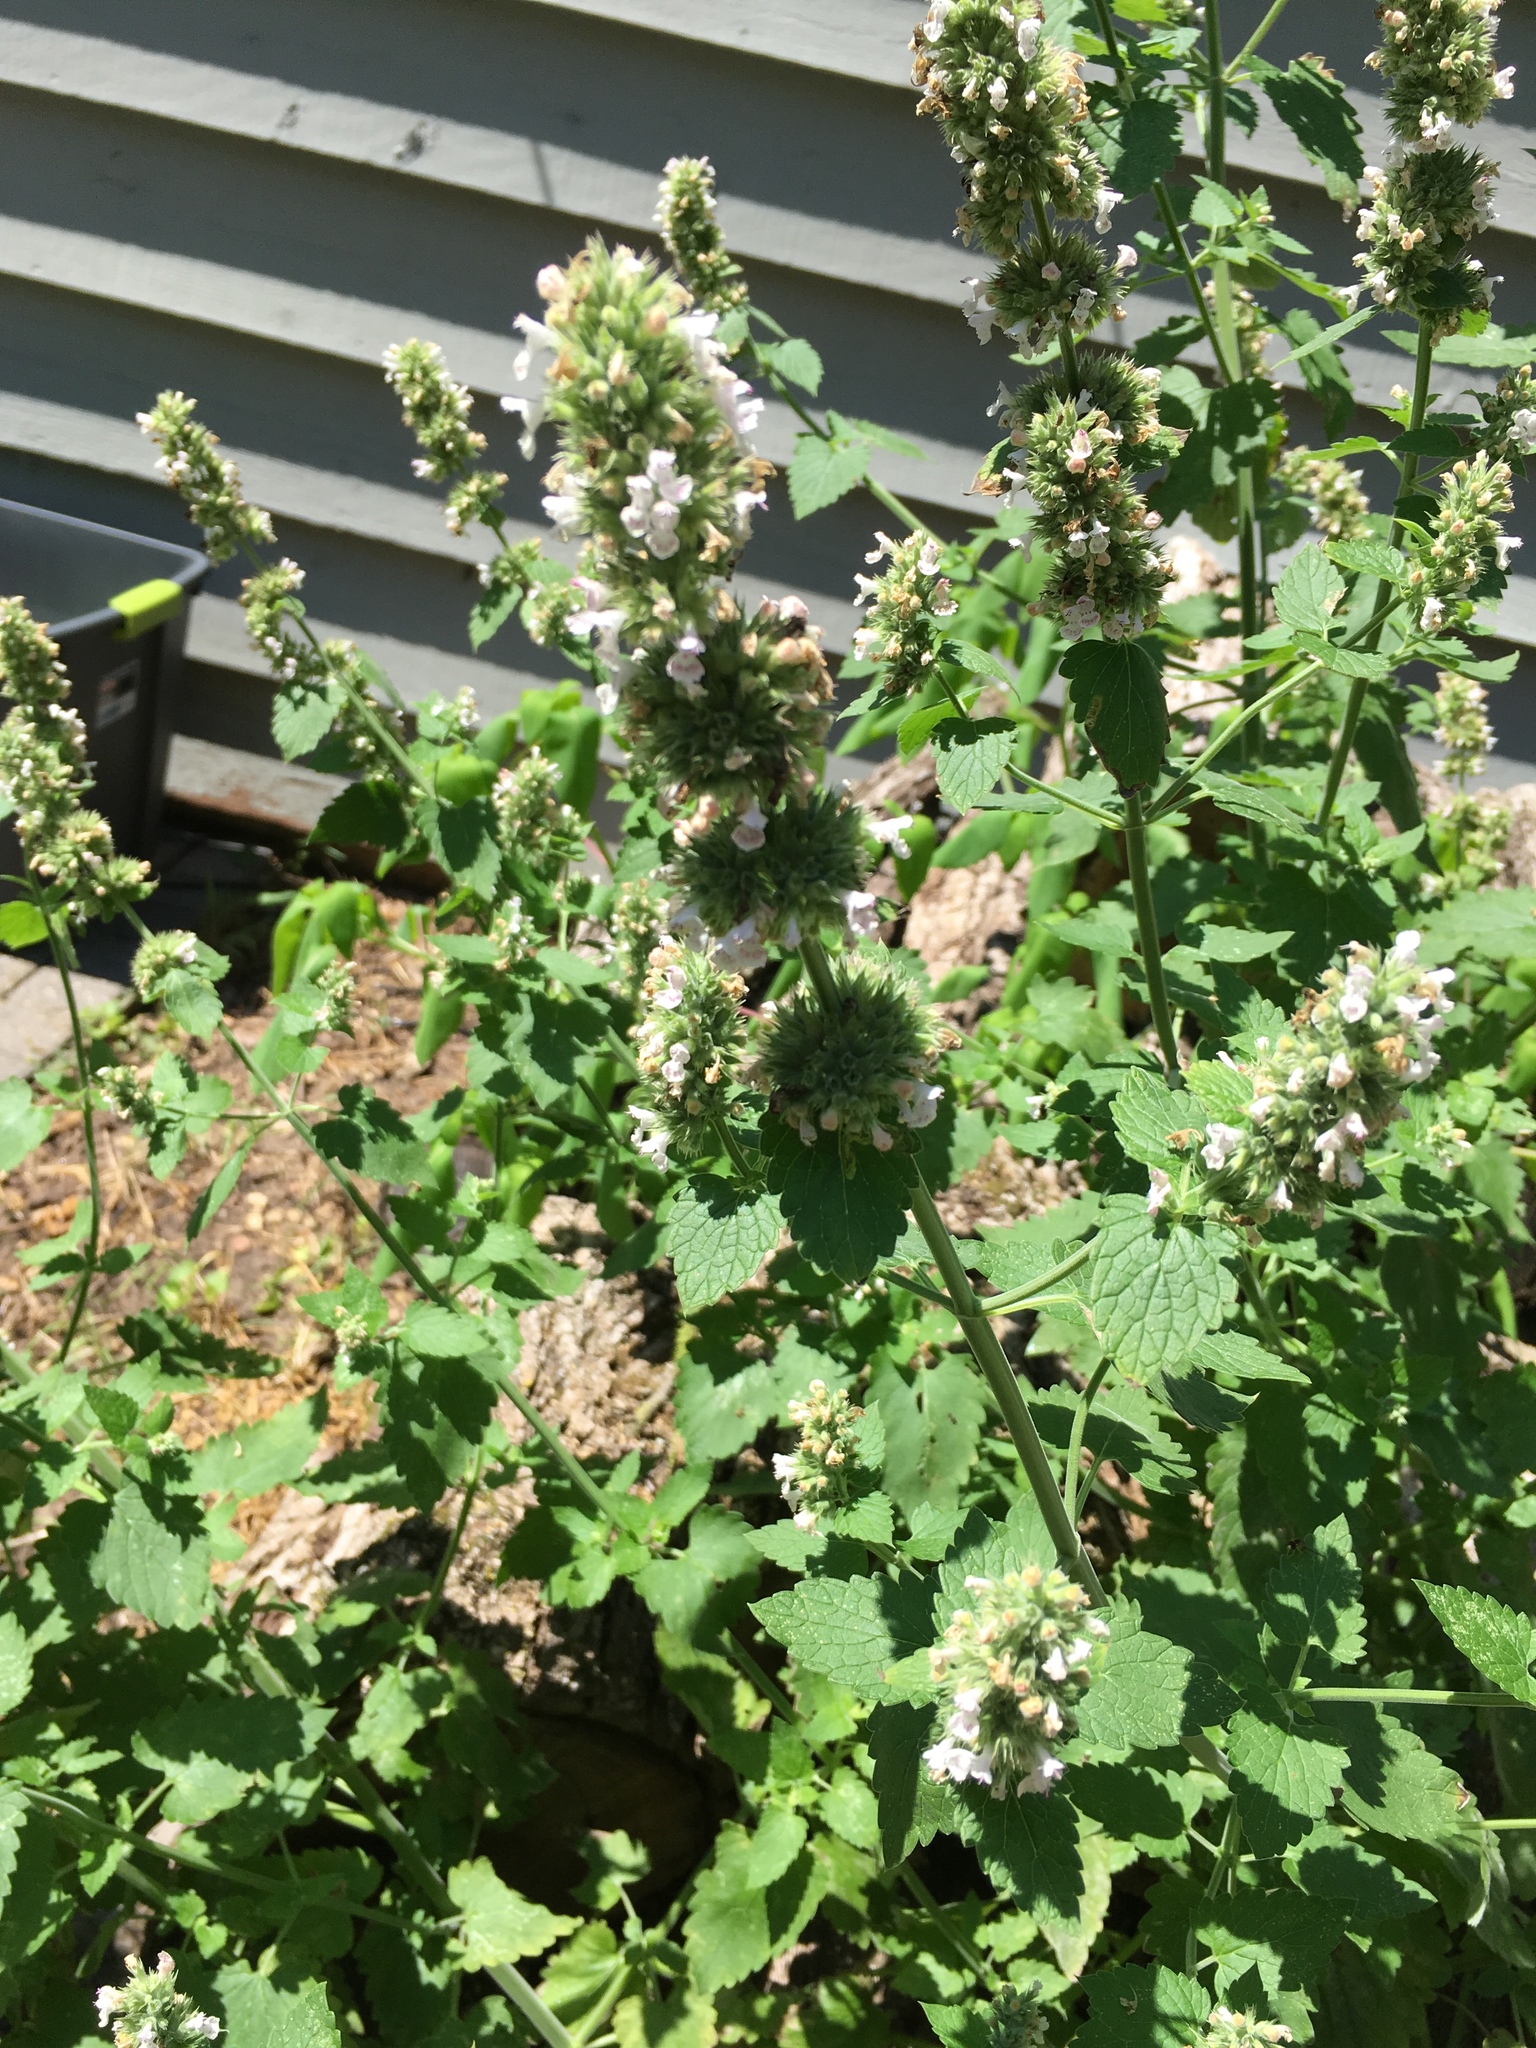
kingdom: Plantae
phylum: Tracheophyta
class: Magnoliopsida
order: Lamiales
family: Lamiaceae
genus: Nepeta
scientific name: Nepeta cataria
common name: Catnip
